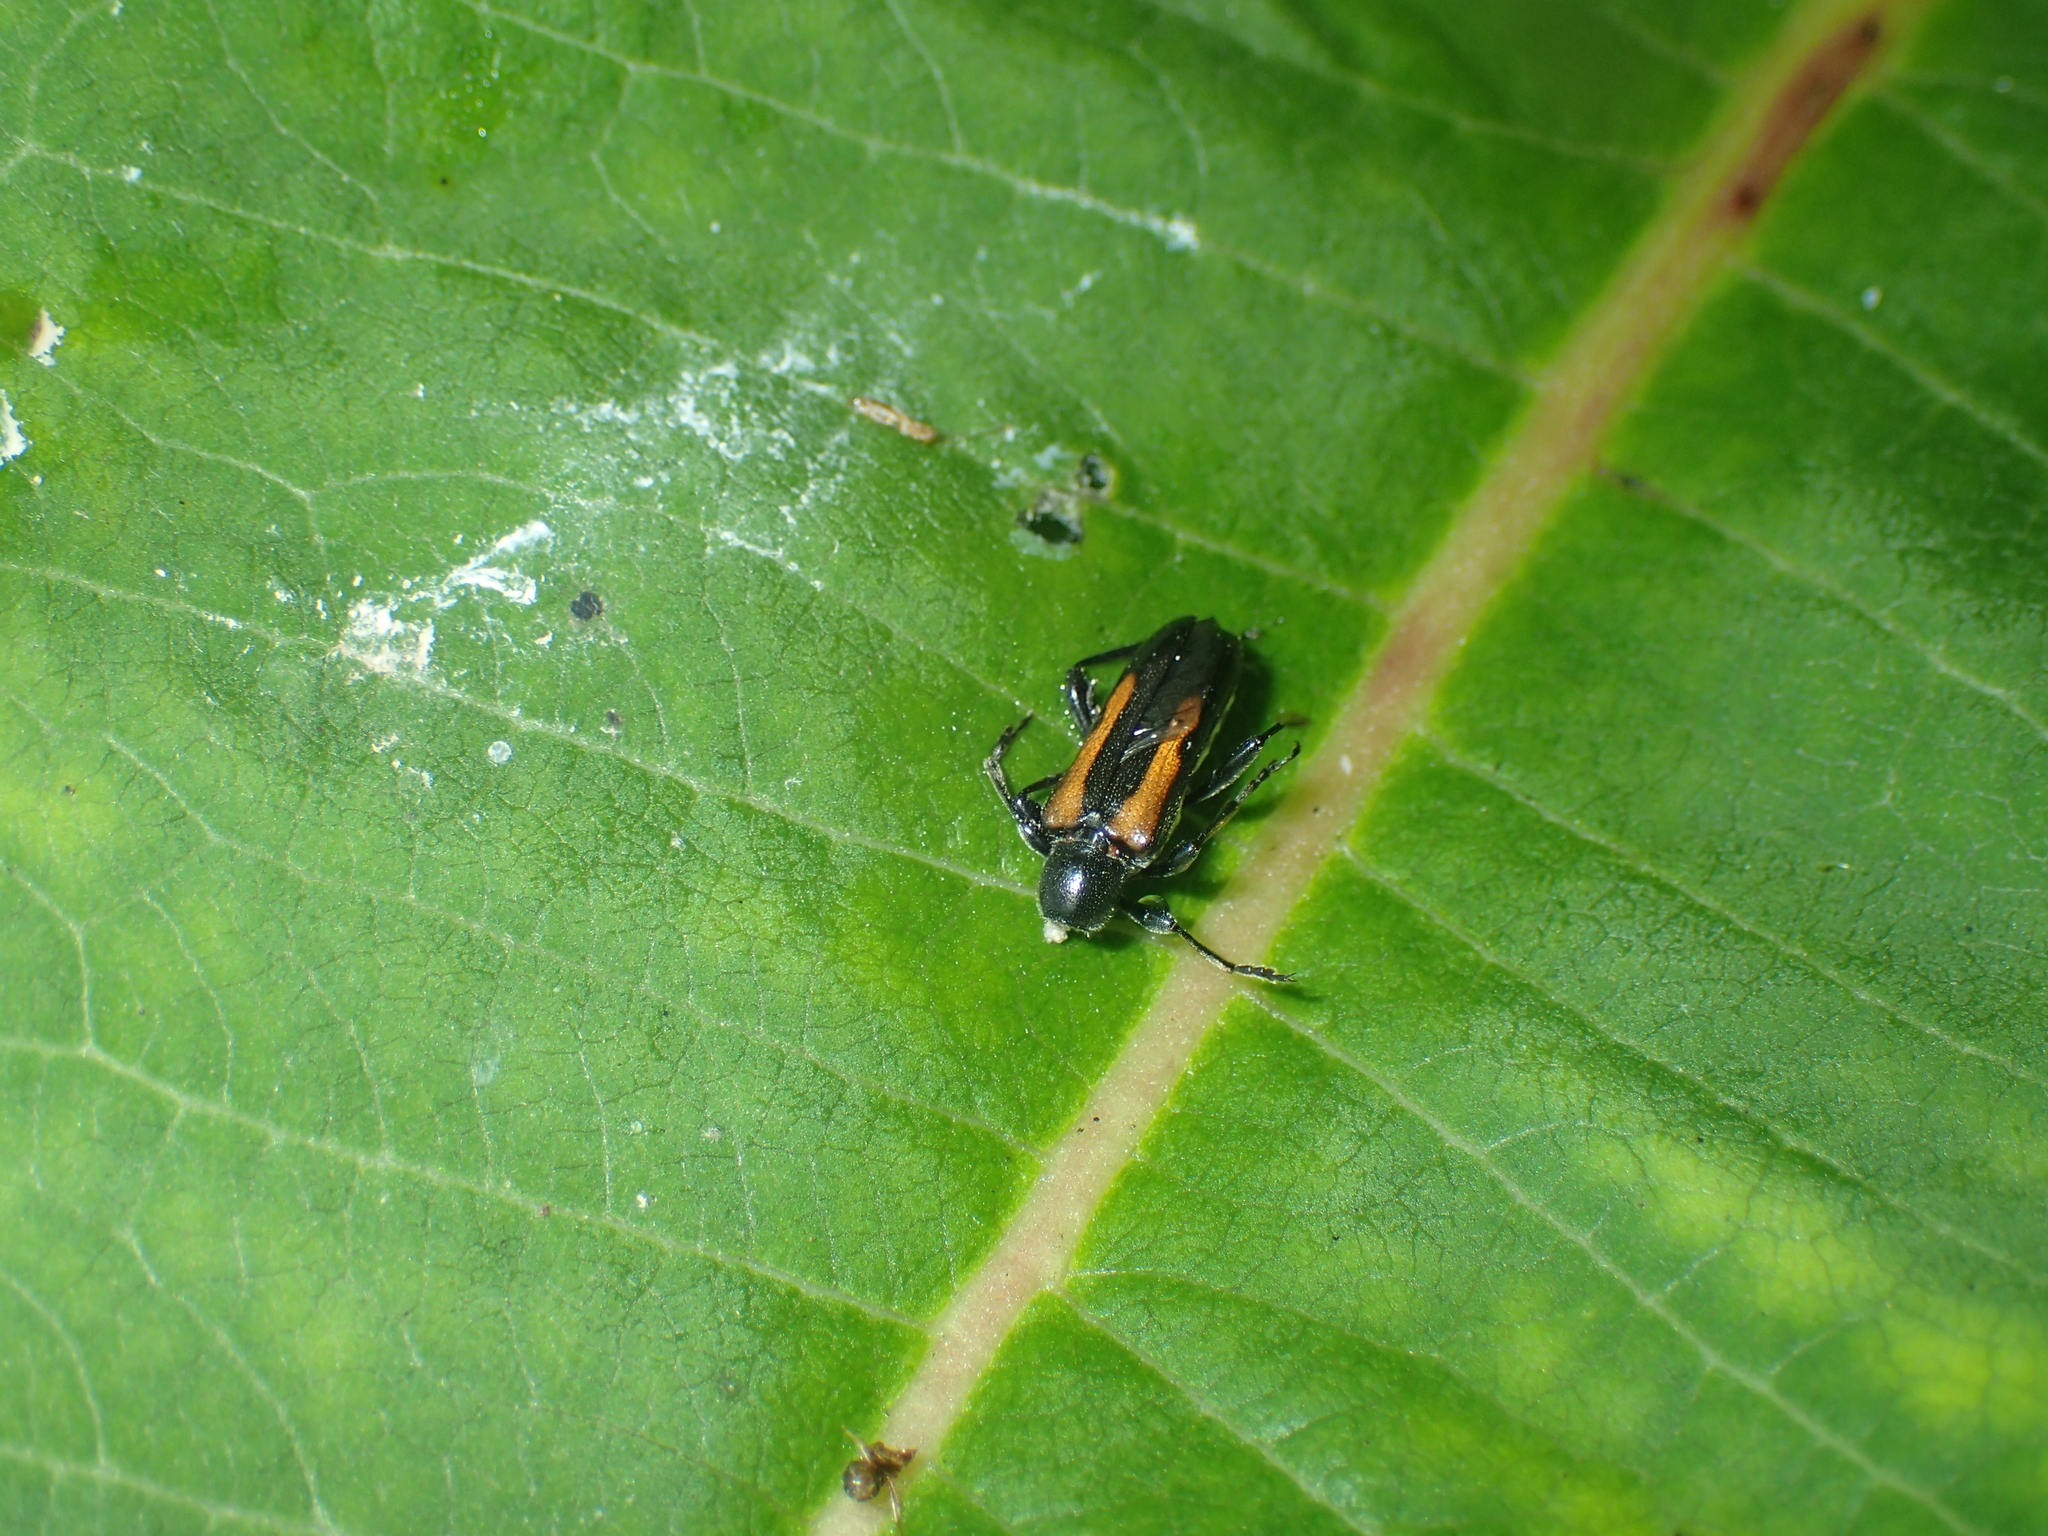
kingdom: Animalia
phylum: Arthropoda
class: Insecta
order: Coleoptera
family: Cerambycidae
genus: Strangalepta
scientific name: Strangalepta abbreviata
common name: Strangalepta flower longhorn beetle
